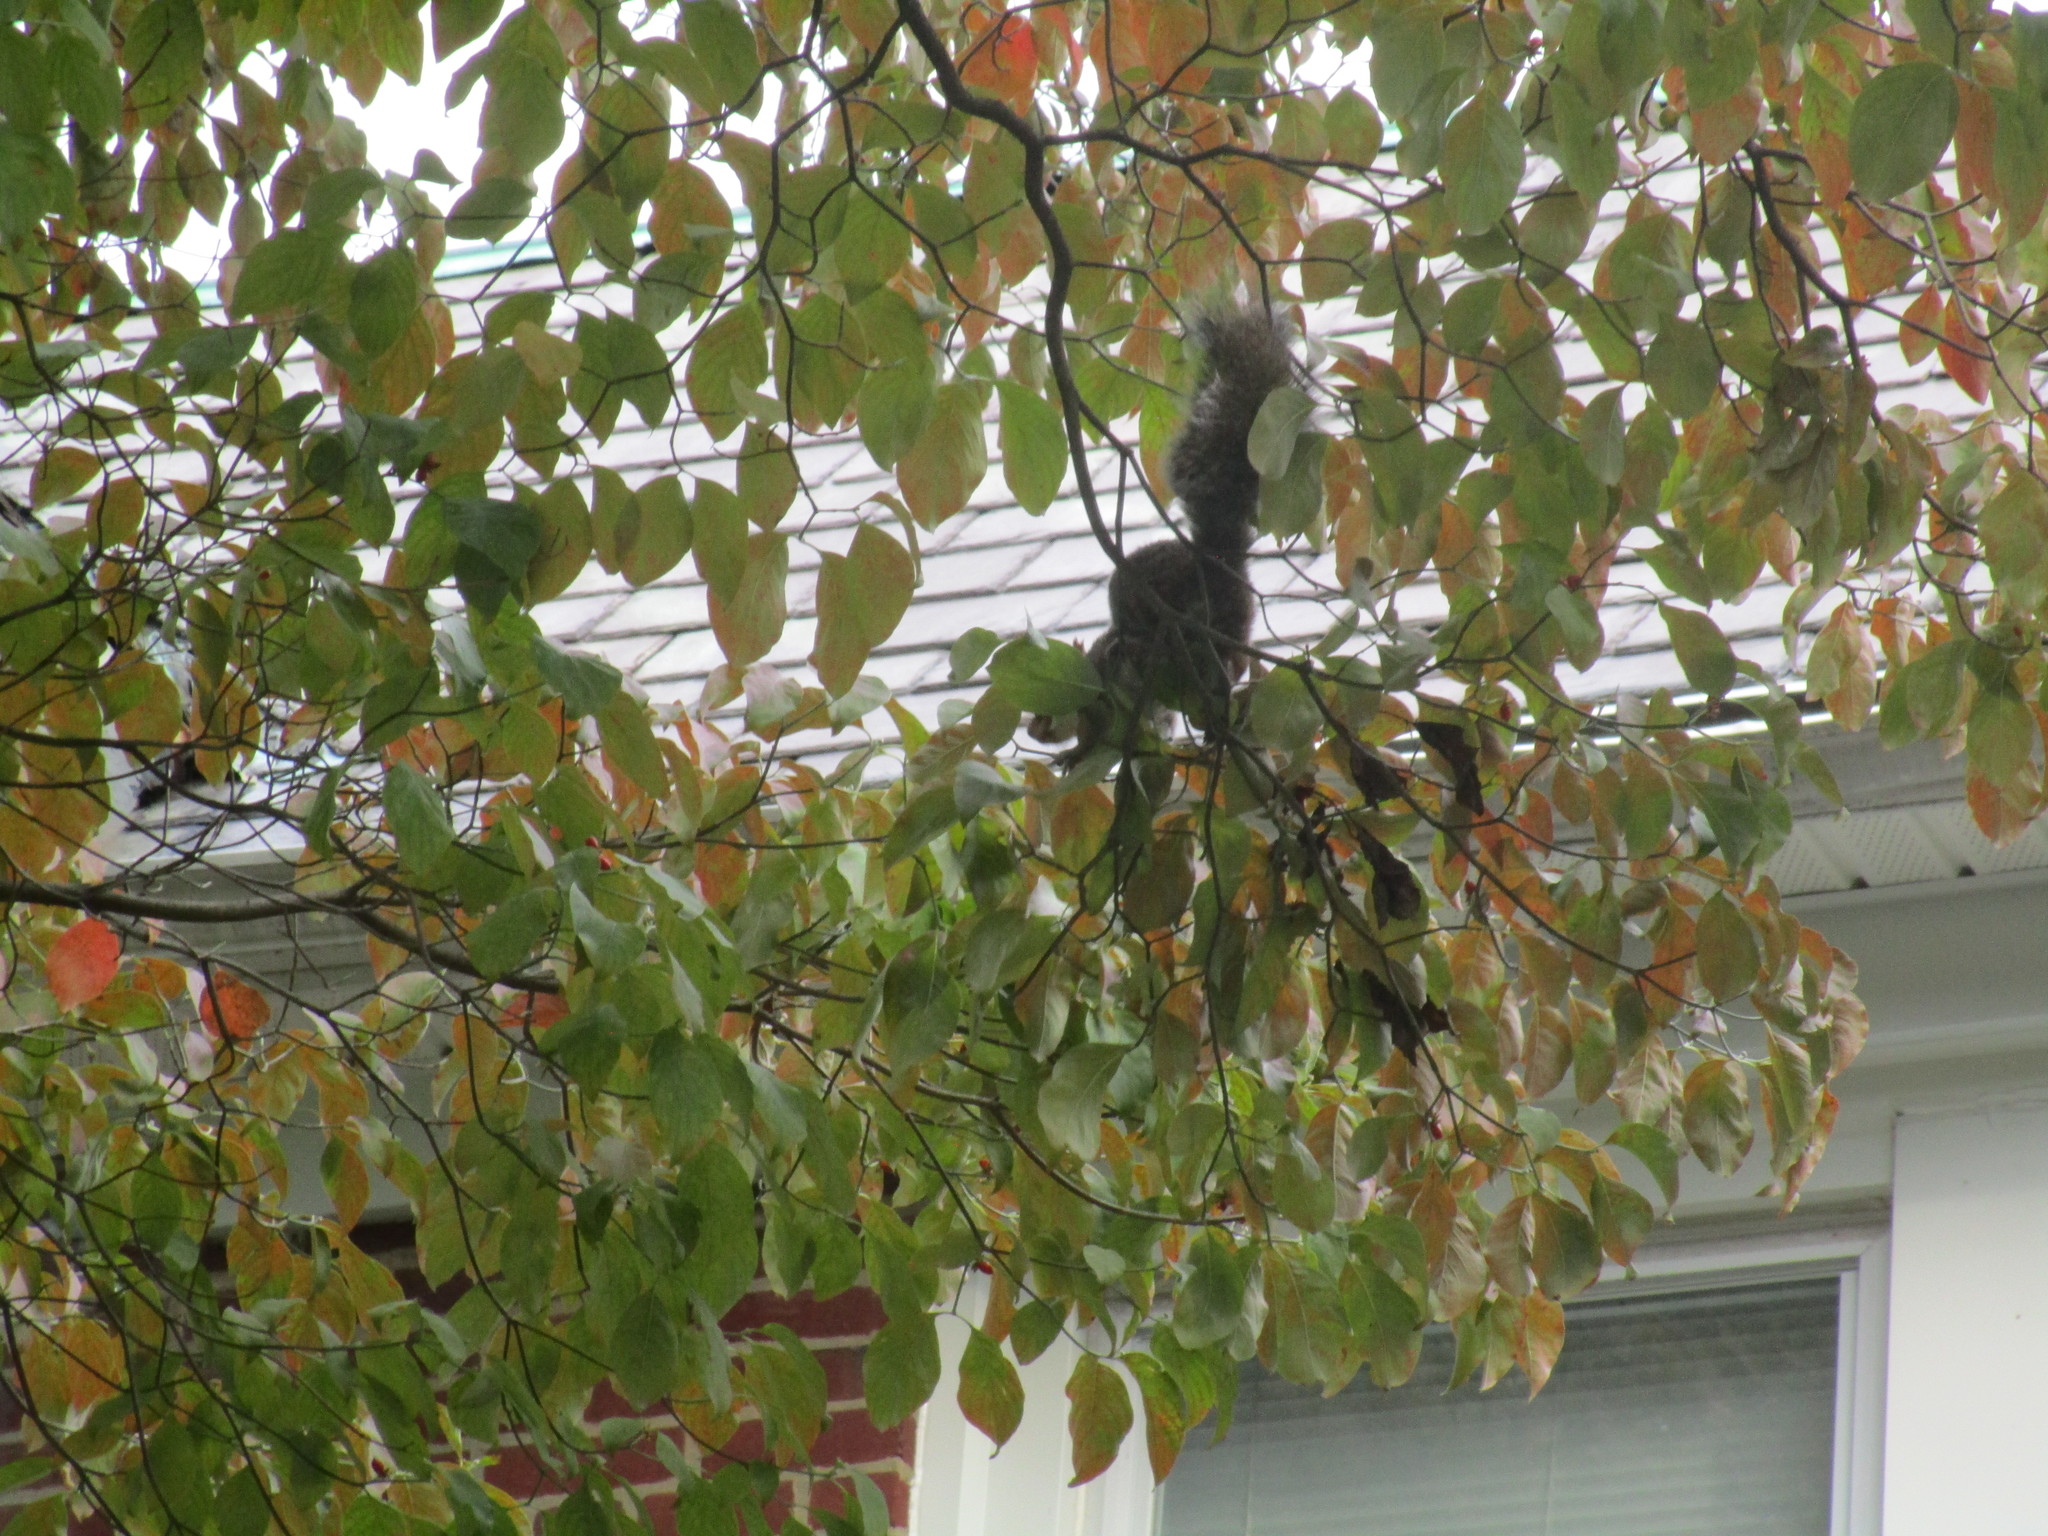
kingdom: Animalia
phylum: Chordata
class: Mammalia
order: Rodentia
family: Sciuridae
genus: Sciurus
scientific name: Sciurus carolinensis
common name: Eastern gray squirrel
